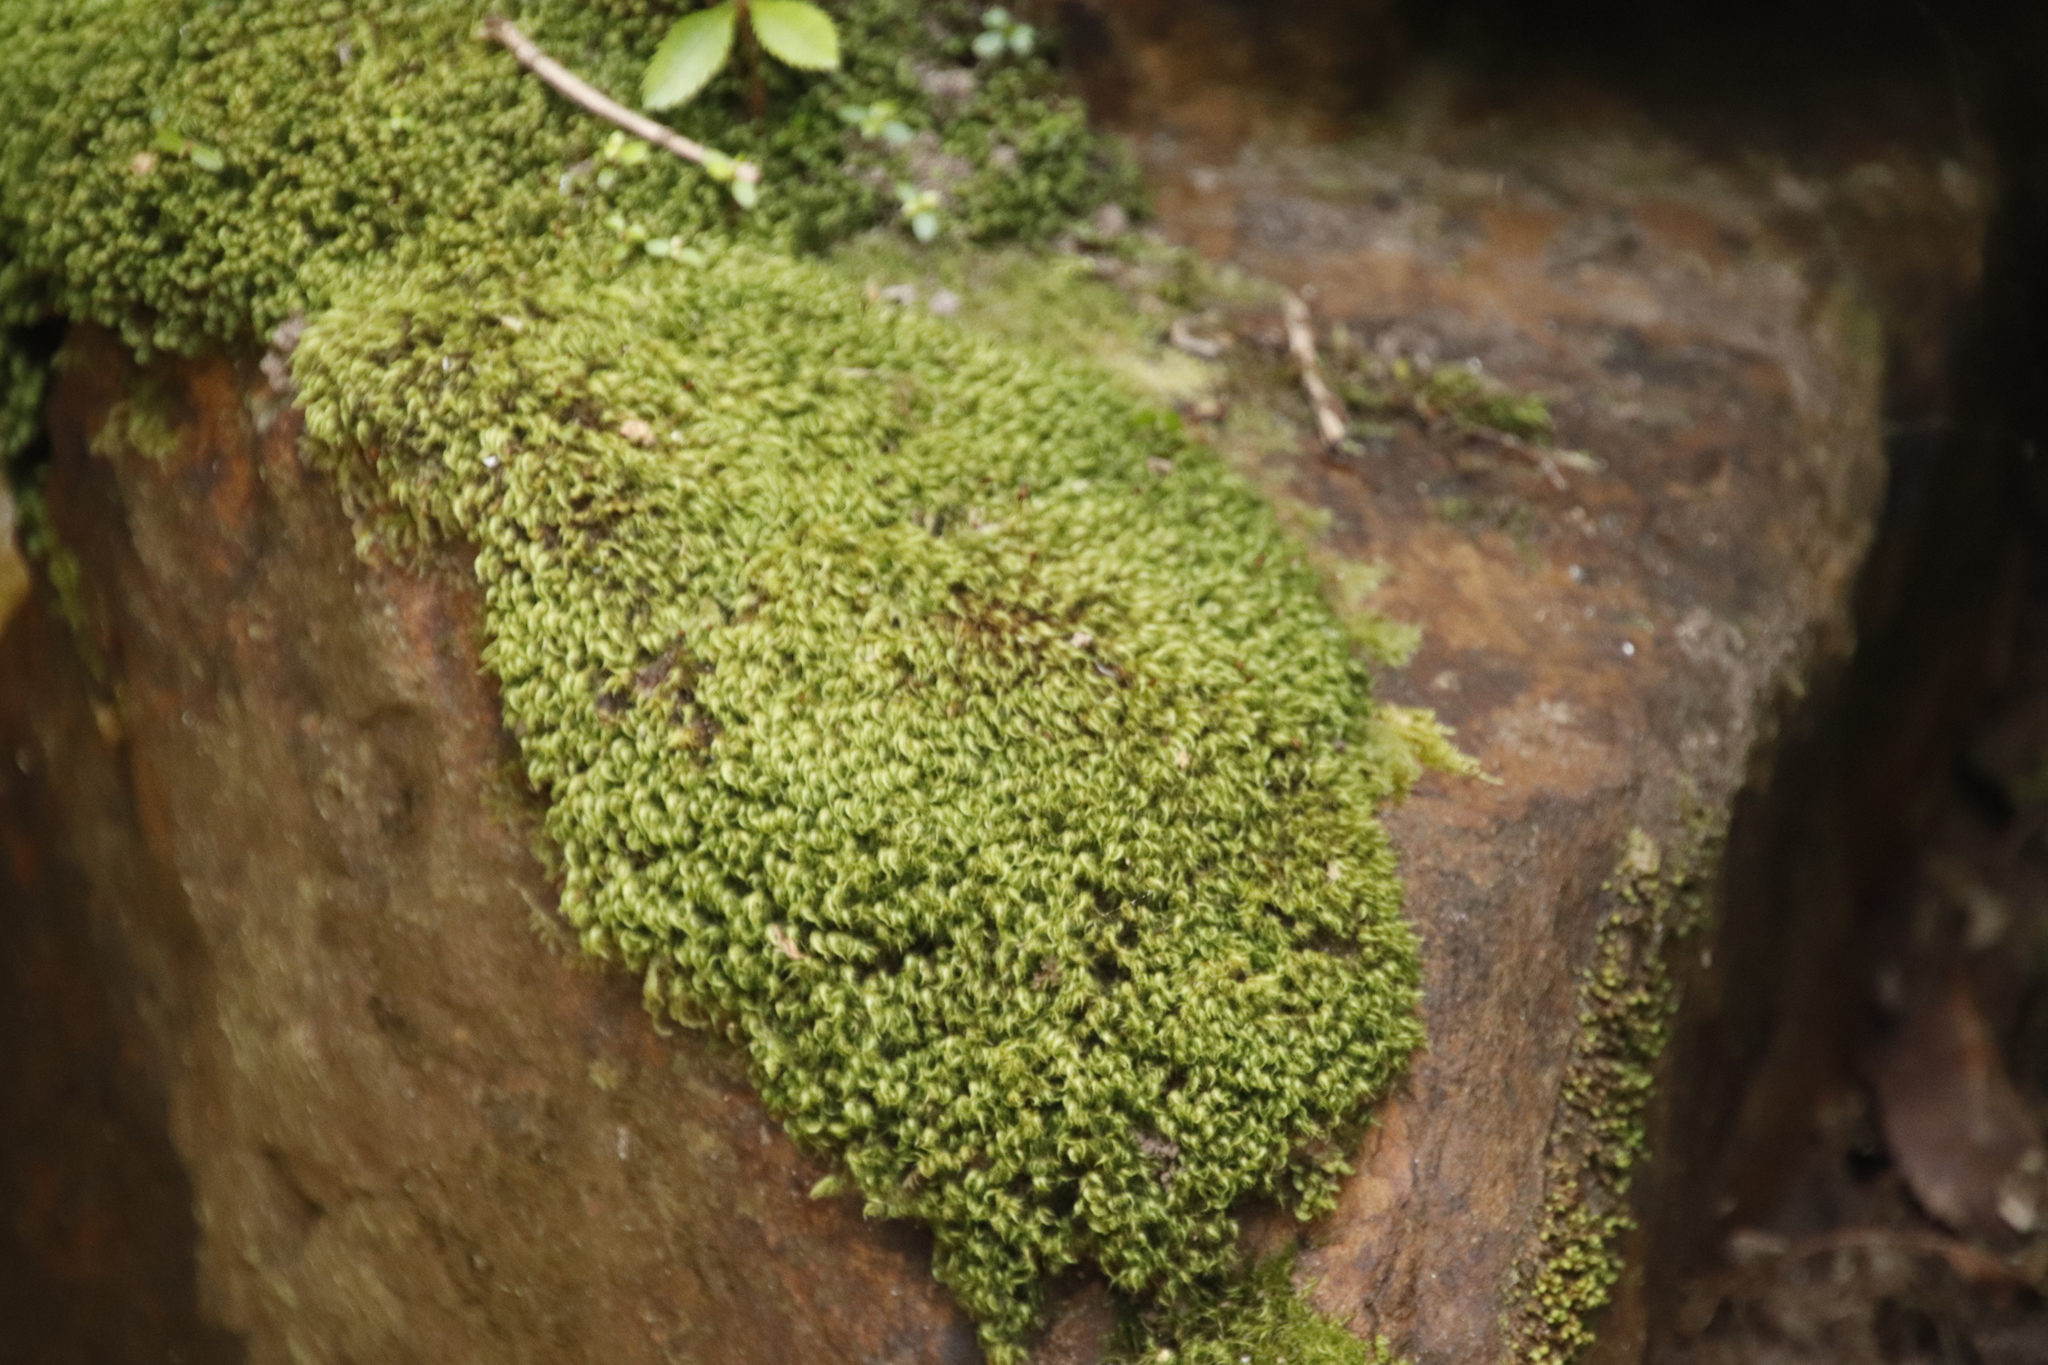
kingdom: Plantae
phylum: Bryophyta
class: Bryopsida
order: Dicranales
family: Dicranaceae
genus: Leucoloma
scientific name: Leucoloma sprengelianum
